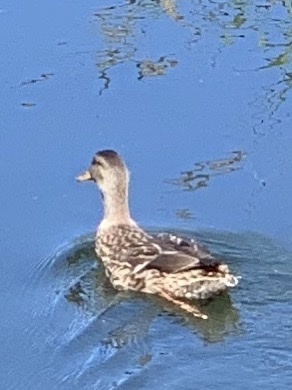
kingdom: Animalia
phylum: Chordata
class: Aves
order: Anseriformes
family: Anatidae
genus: Anas
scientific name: Anas platyrhynchos
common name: Mallard
